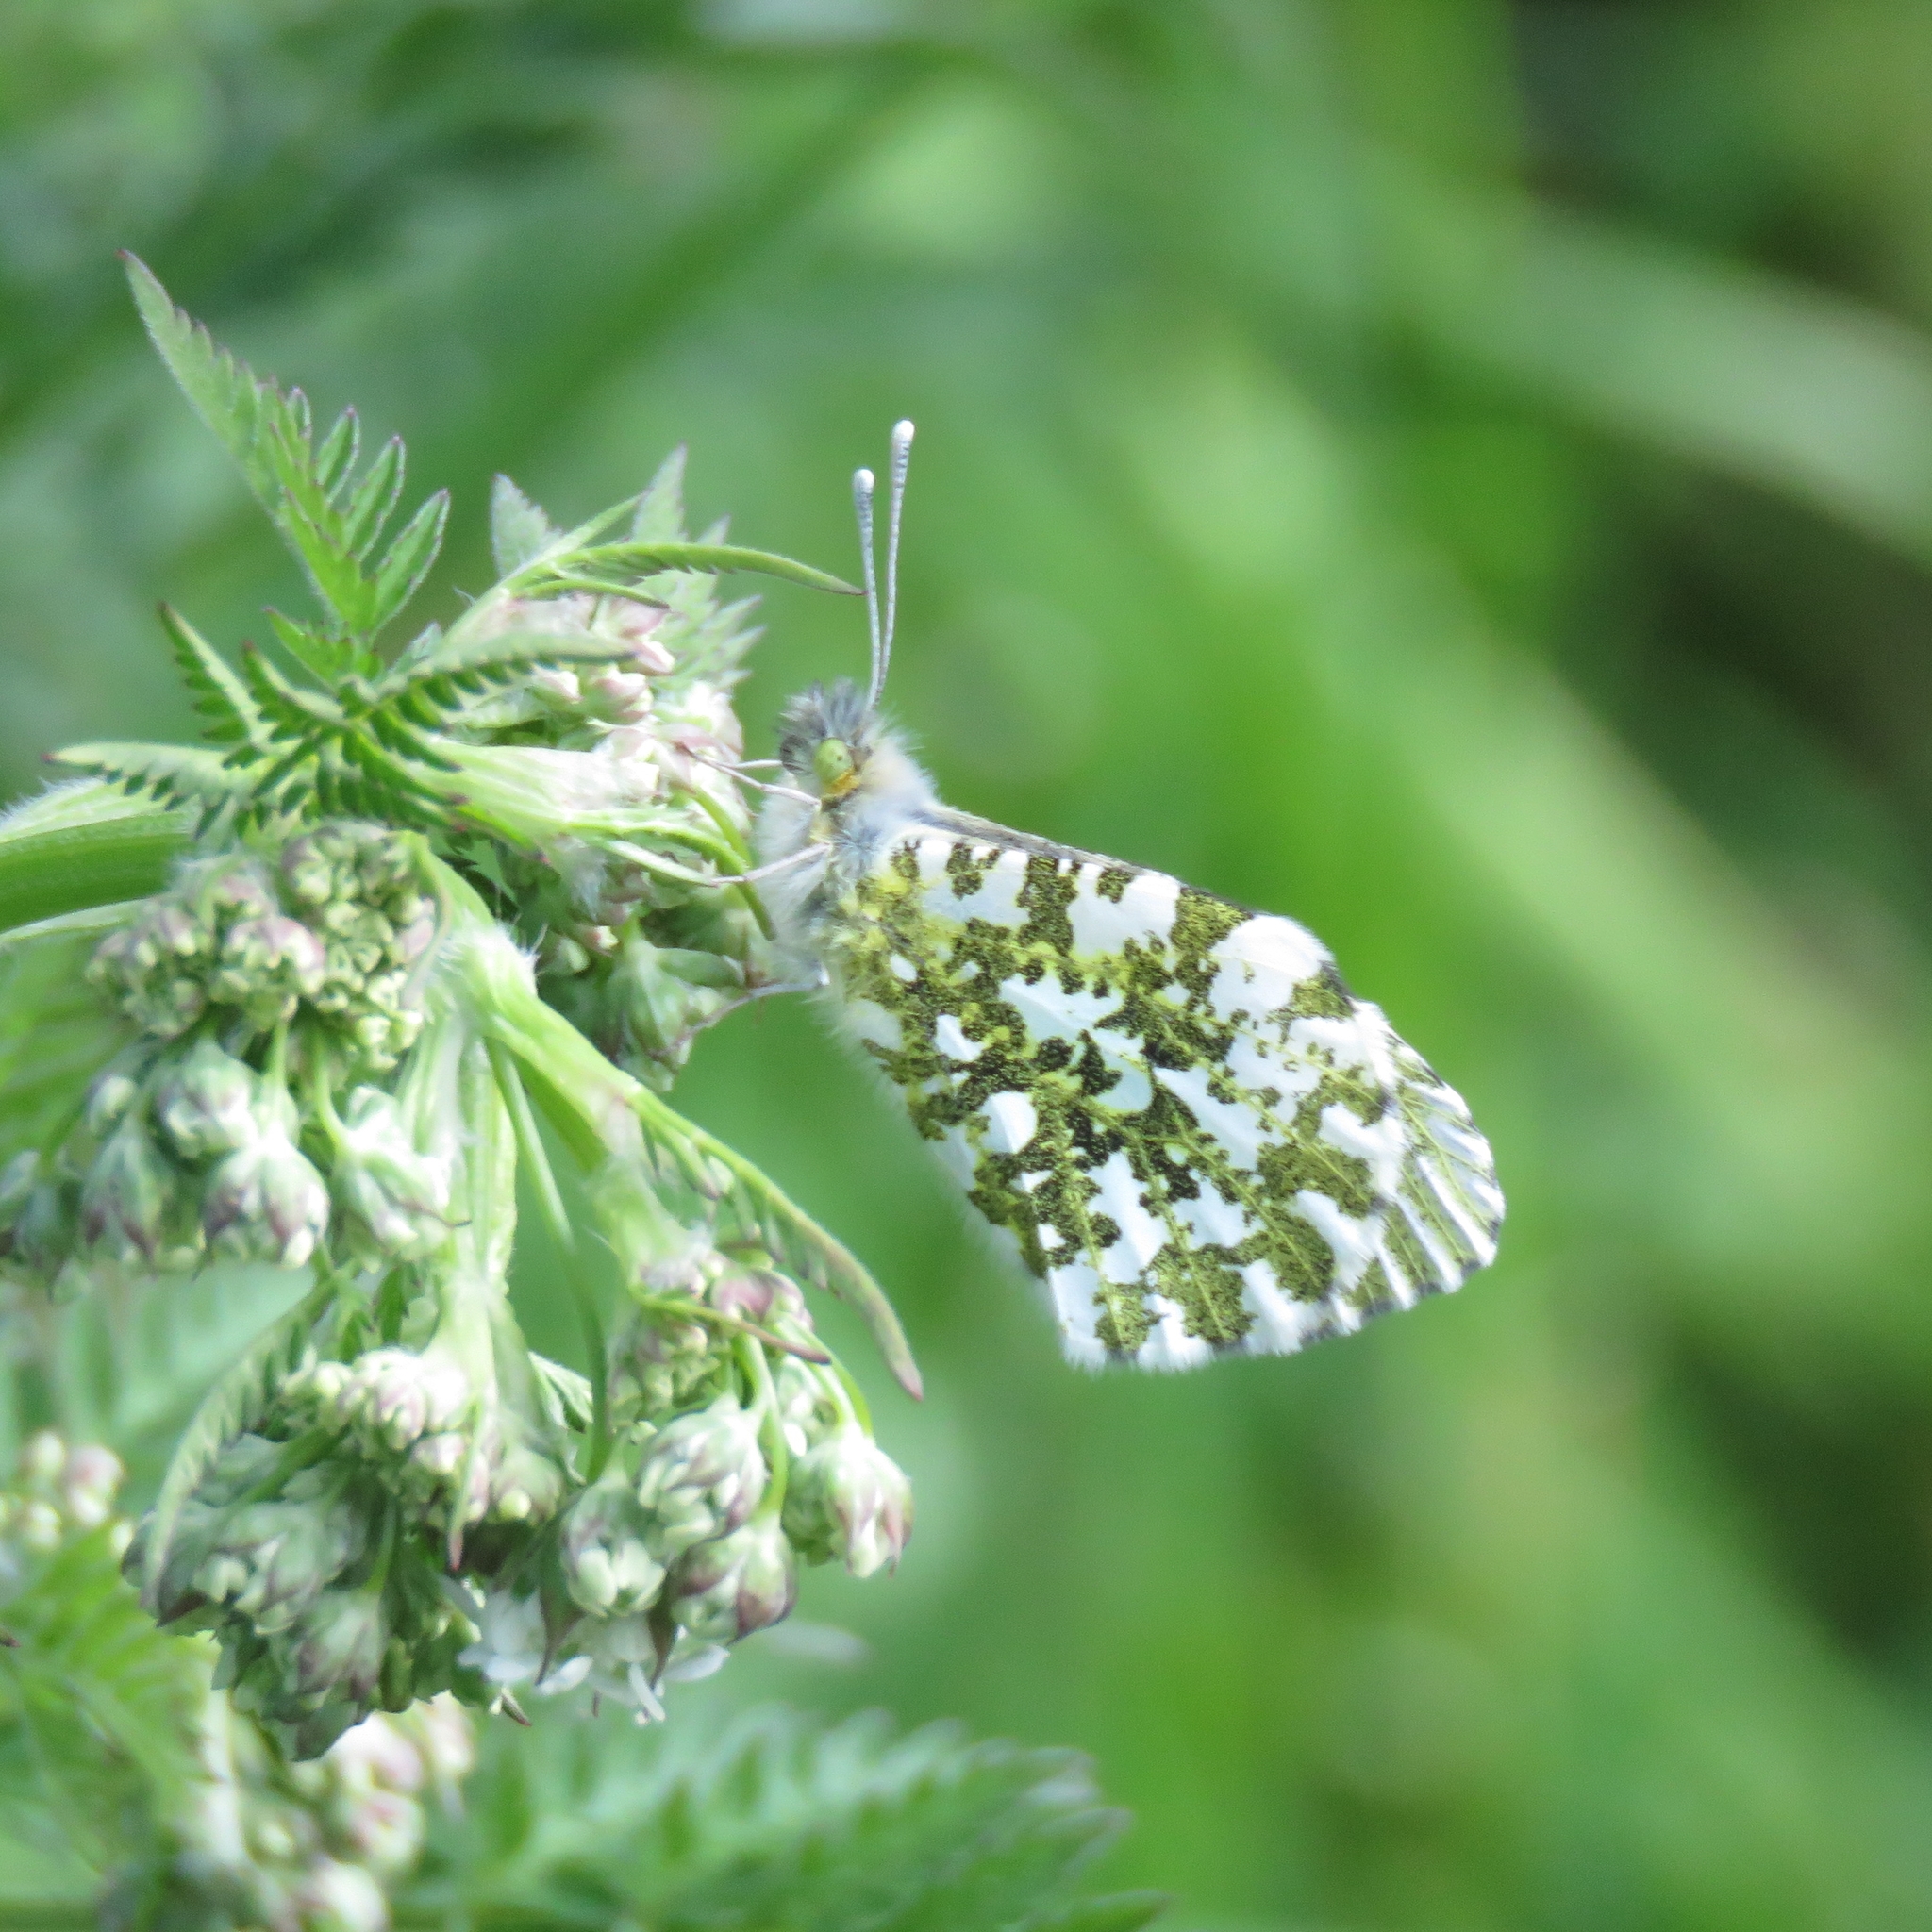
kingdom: Animalia
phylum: Arthropoda
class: Insecta
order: Lepidoptera
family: Pieridae
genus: Anthocharis
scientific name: Anthocharis cardamines
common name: Orange-tip
